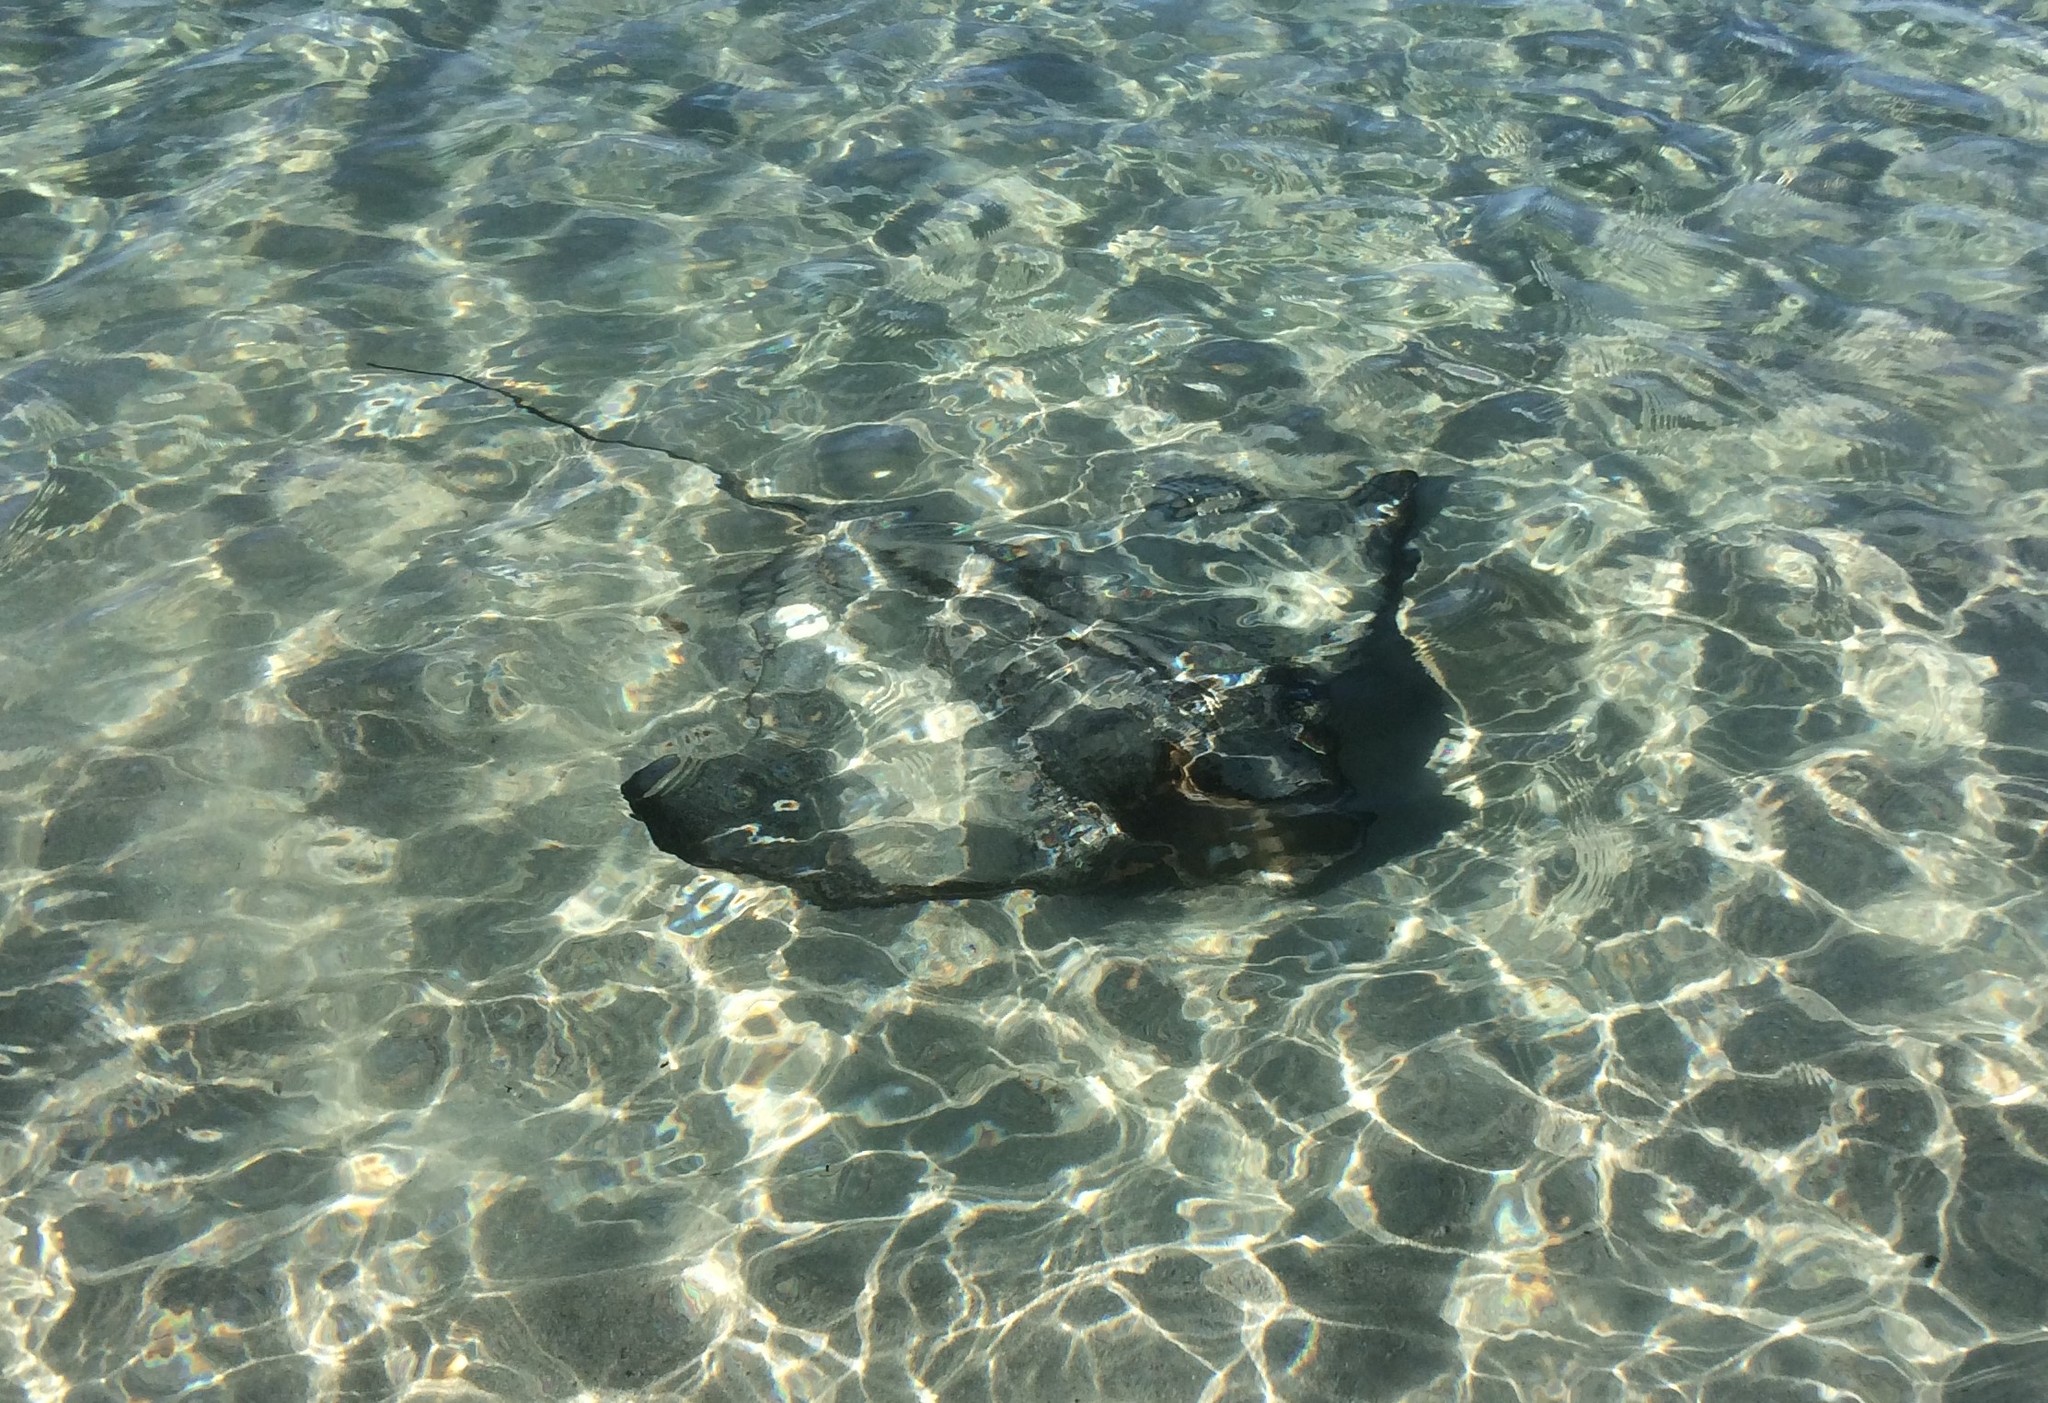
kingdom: Animalia
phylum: Chordata
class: Elasmobranchii
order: Myliobatiformes
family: Myliobatidae
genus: Myliobatis
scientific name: Myliobatis tenuicaudatus
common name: Eagle ray
